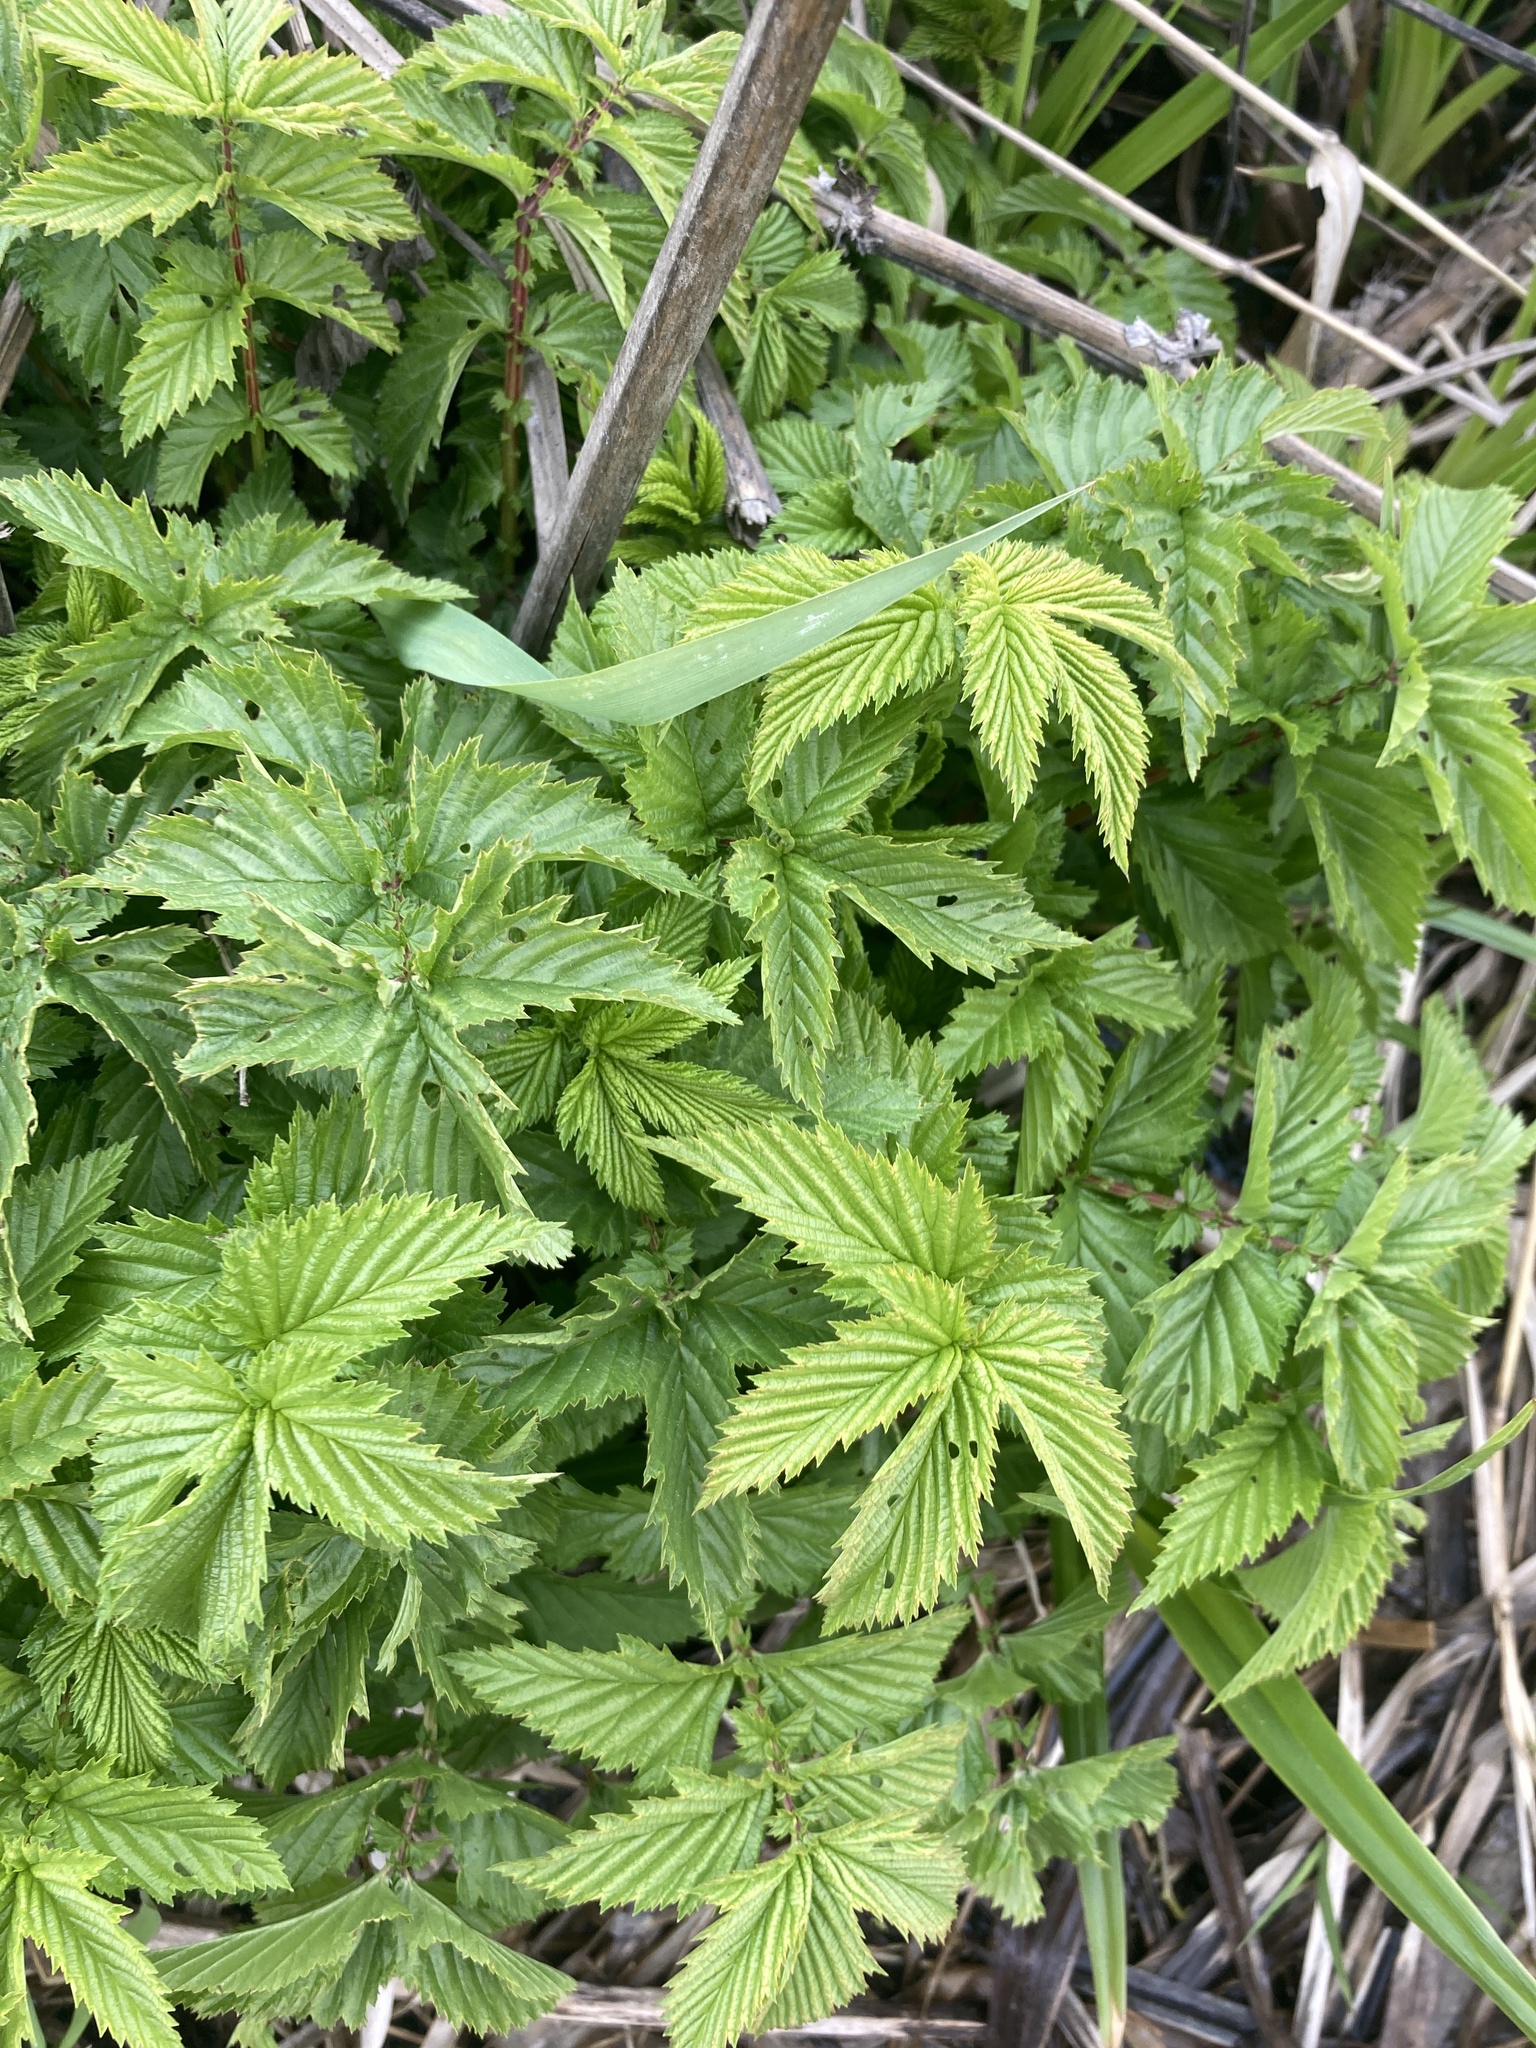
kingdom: Plantae
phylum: Tracheophyta
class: Magnoliopsida
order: Rosales
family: Rosaceae
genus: Filipendula
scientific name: Filipendula ulmaria
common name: Meadowsweet
